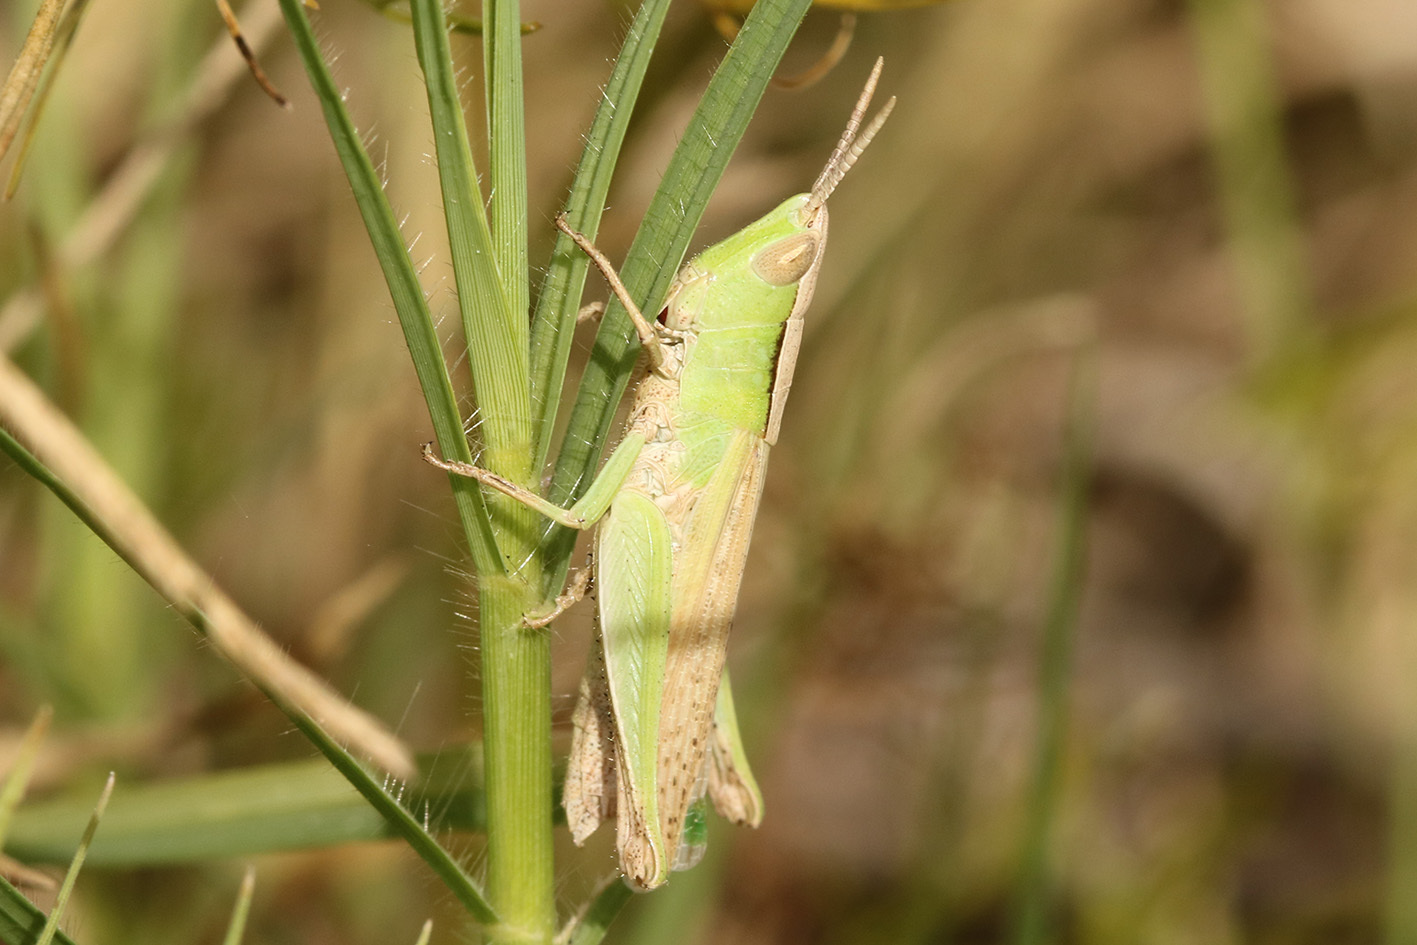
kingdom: Animalia
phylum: Arthropoda
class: Insecta
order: Orthoptera
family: Acrididae
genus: Laplatacris
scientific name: Laplatacris dispar
